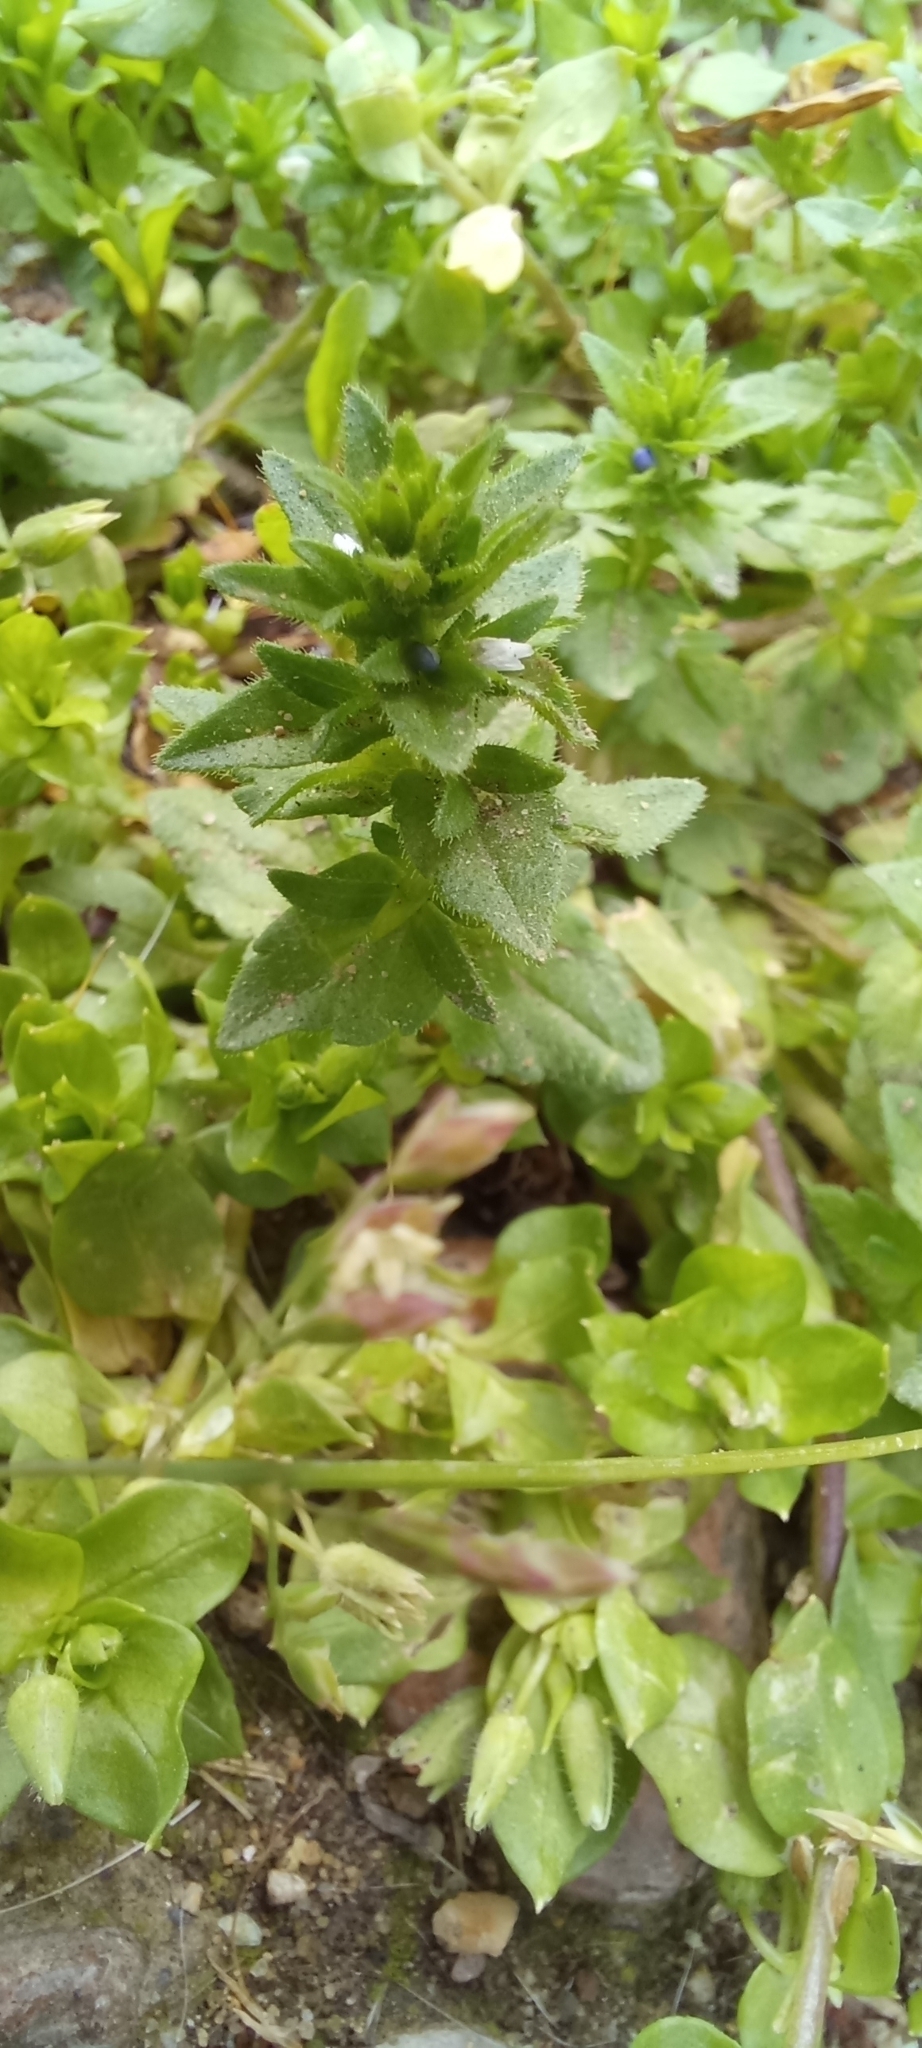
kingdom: Plantae
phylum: Tracheophyta
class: Magnoliopsida
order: Lamiales
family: Plantaginaceae
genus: Veronica
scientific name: Veronica arvensis
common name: Corn speedwell
